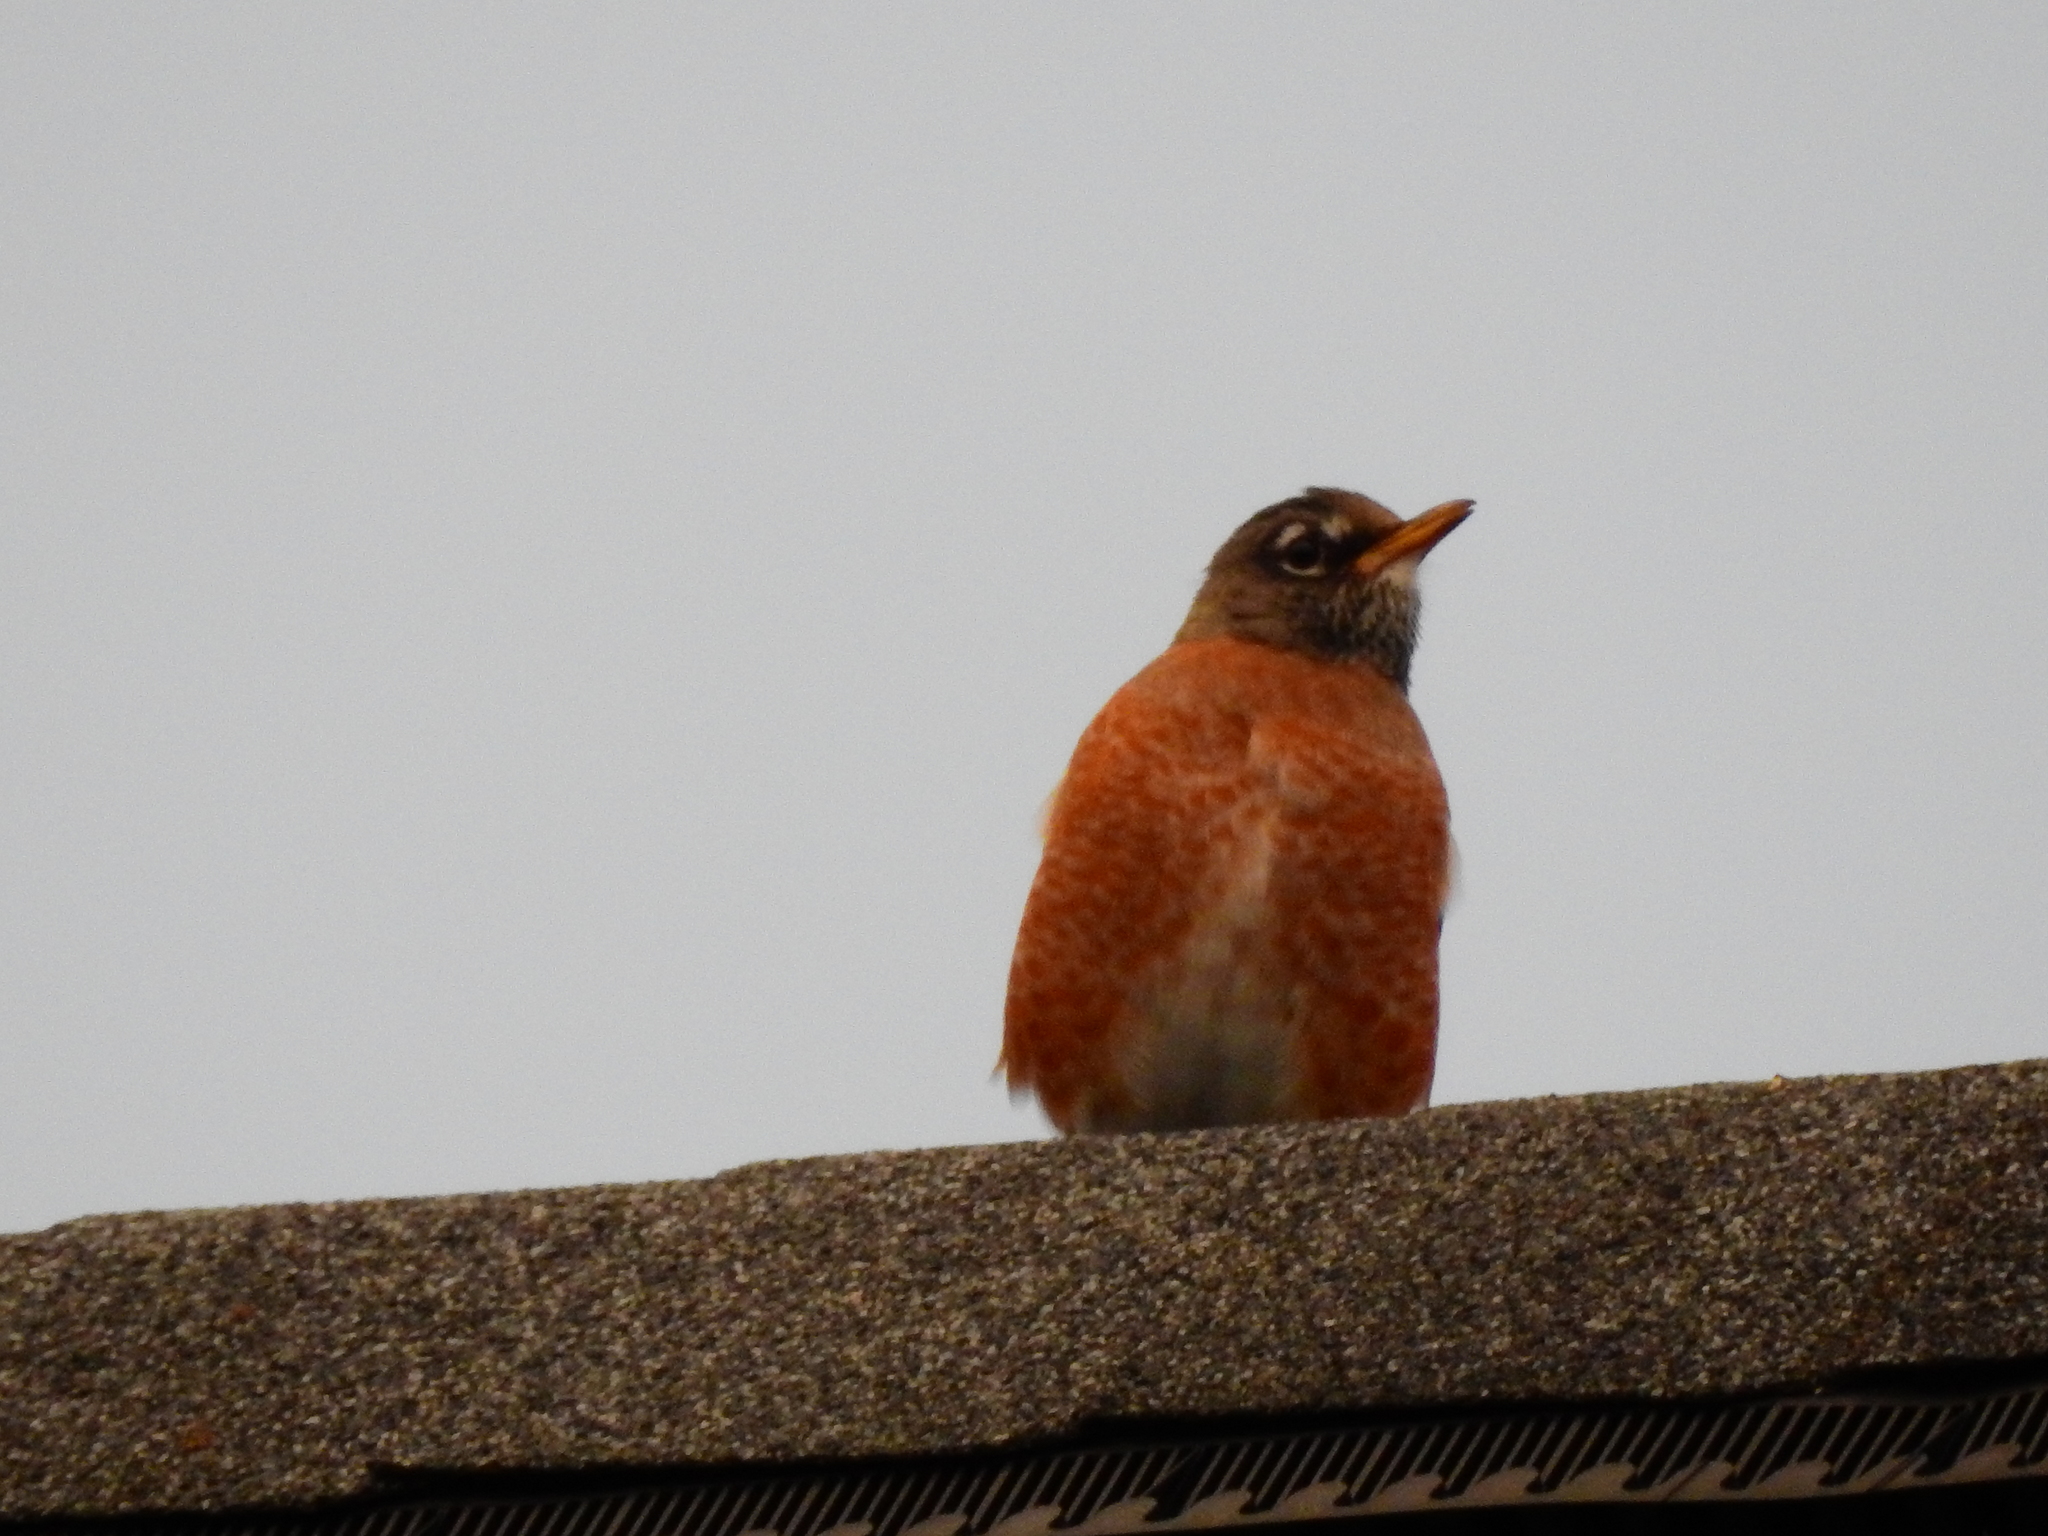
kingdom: Animalia
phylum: Chordata
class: Aves
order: Passeriformes
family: Turdidae
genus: Turdus
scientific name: Turdus migratorius
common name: American robin
